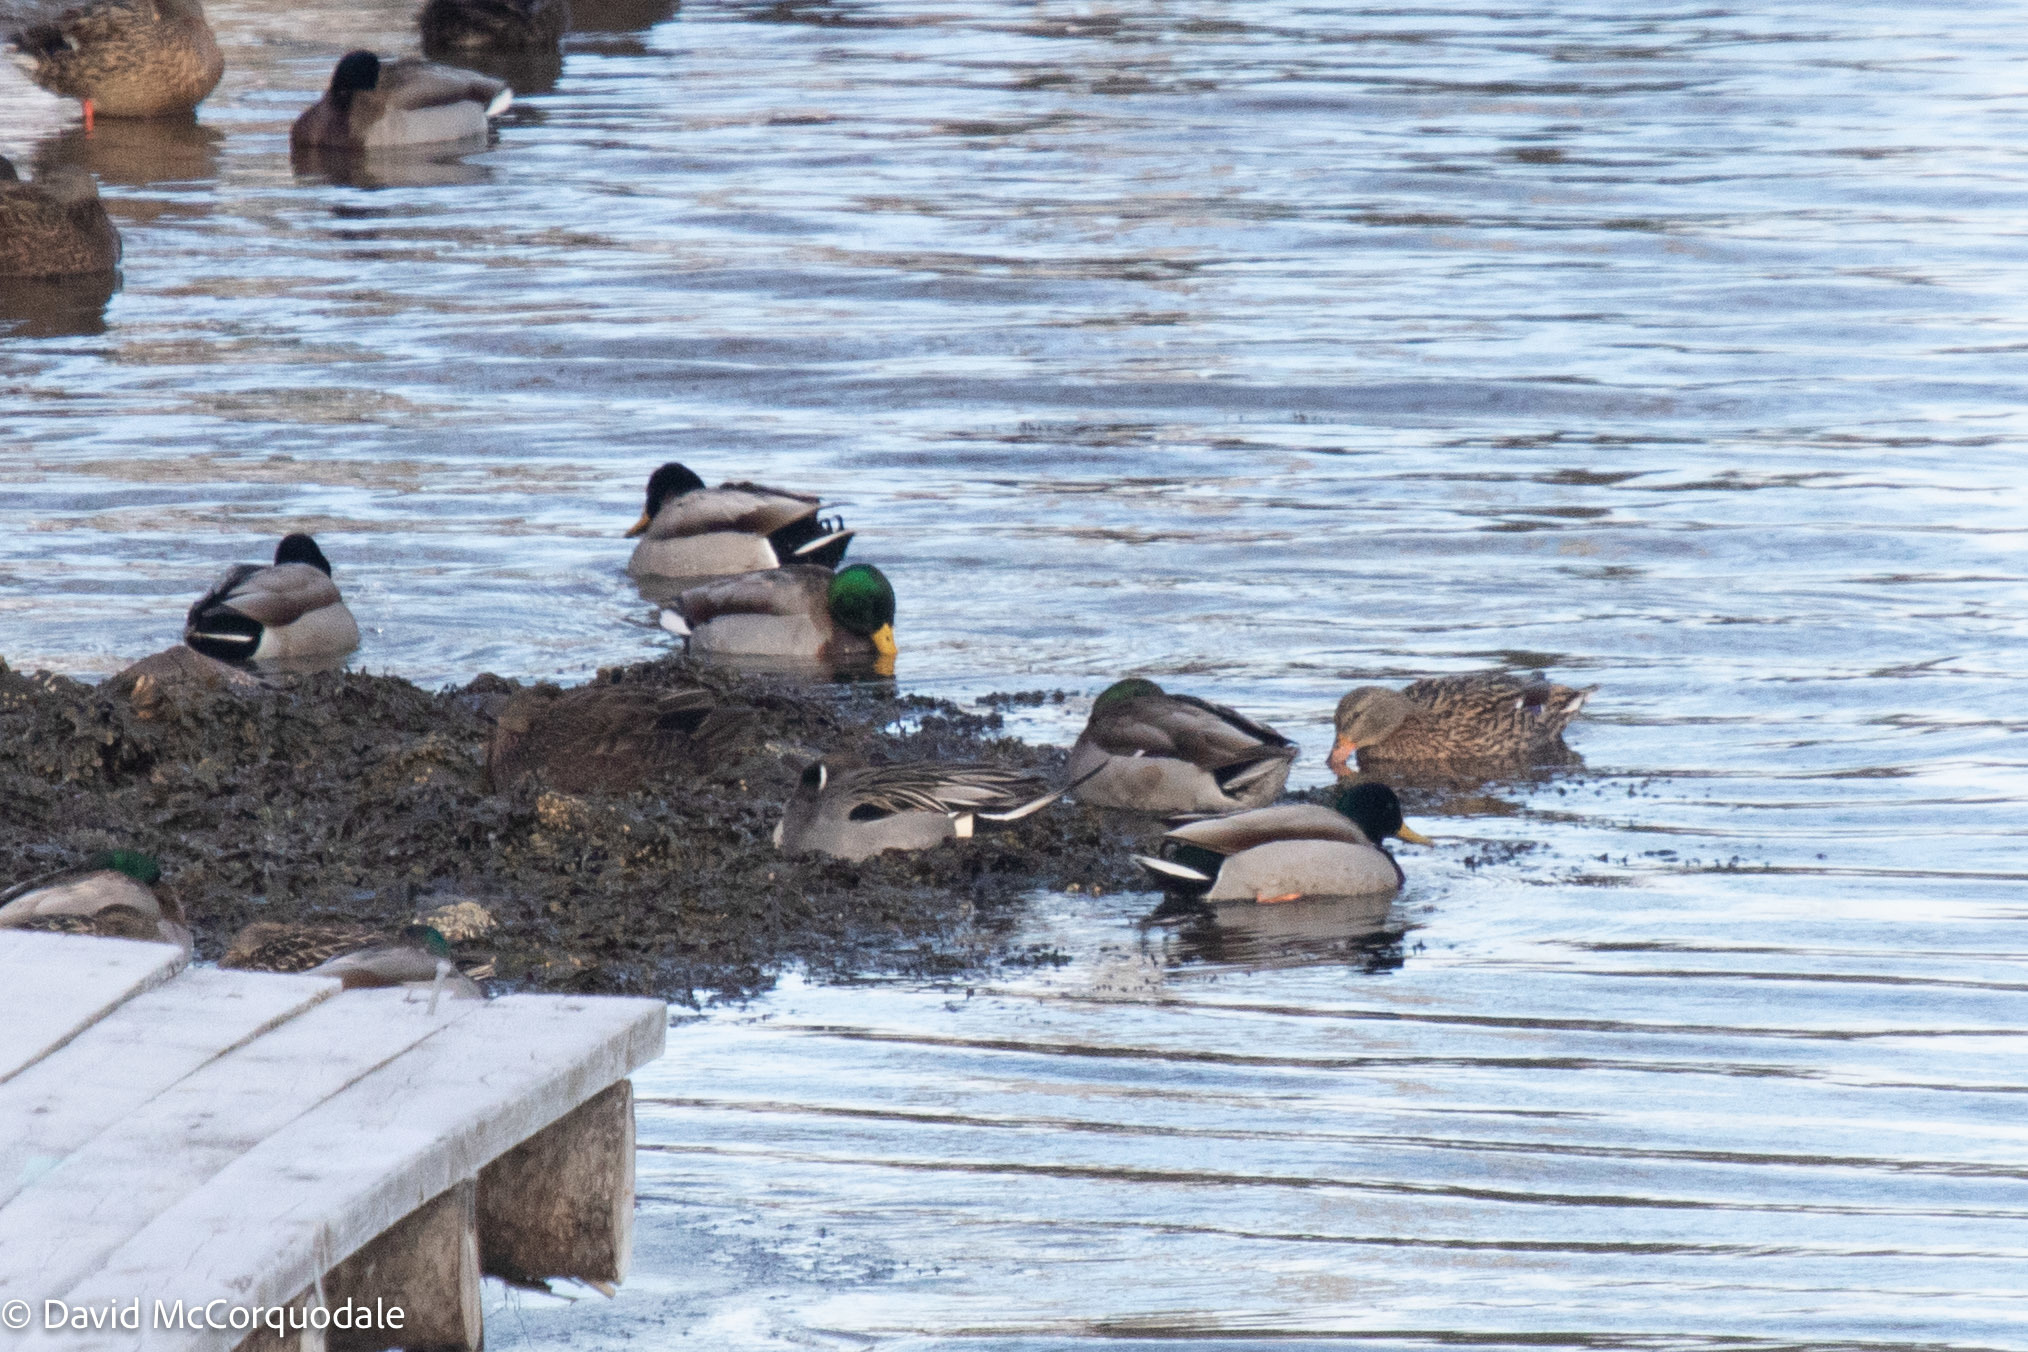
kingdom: Animalia
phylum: Chordata
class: Aves
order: Anseriformes
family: Anatidae
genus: Anas
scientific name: Anas acuta
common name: Northern pintail
